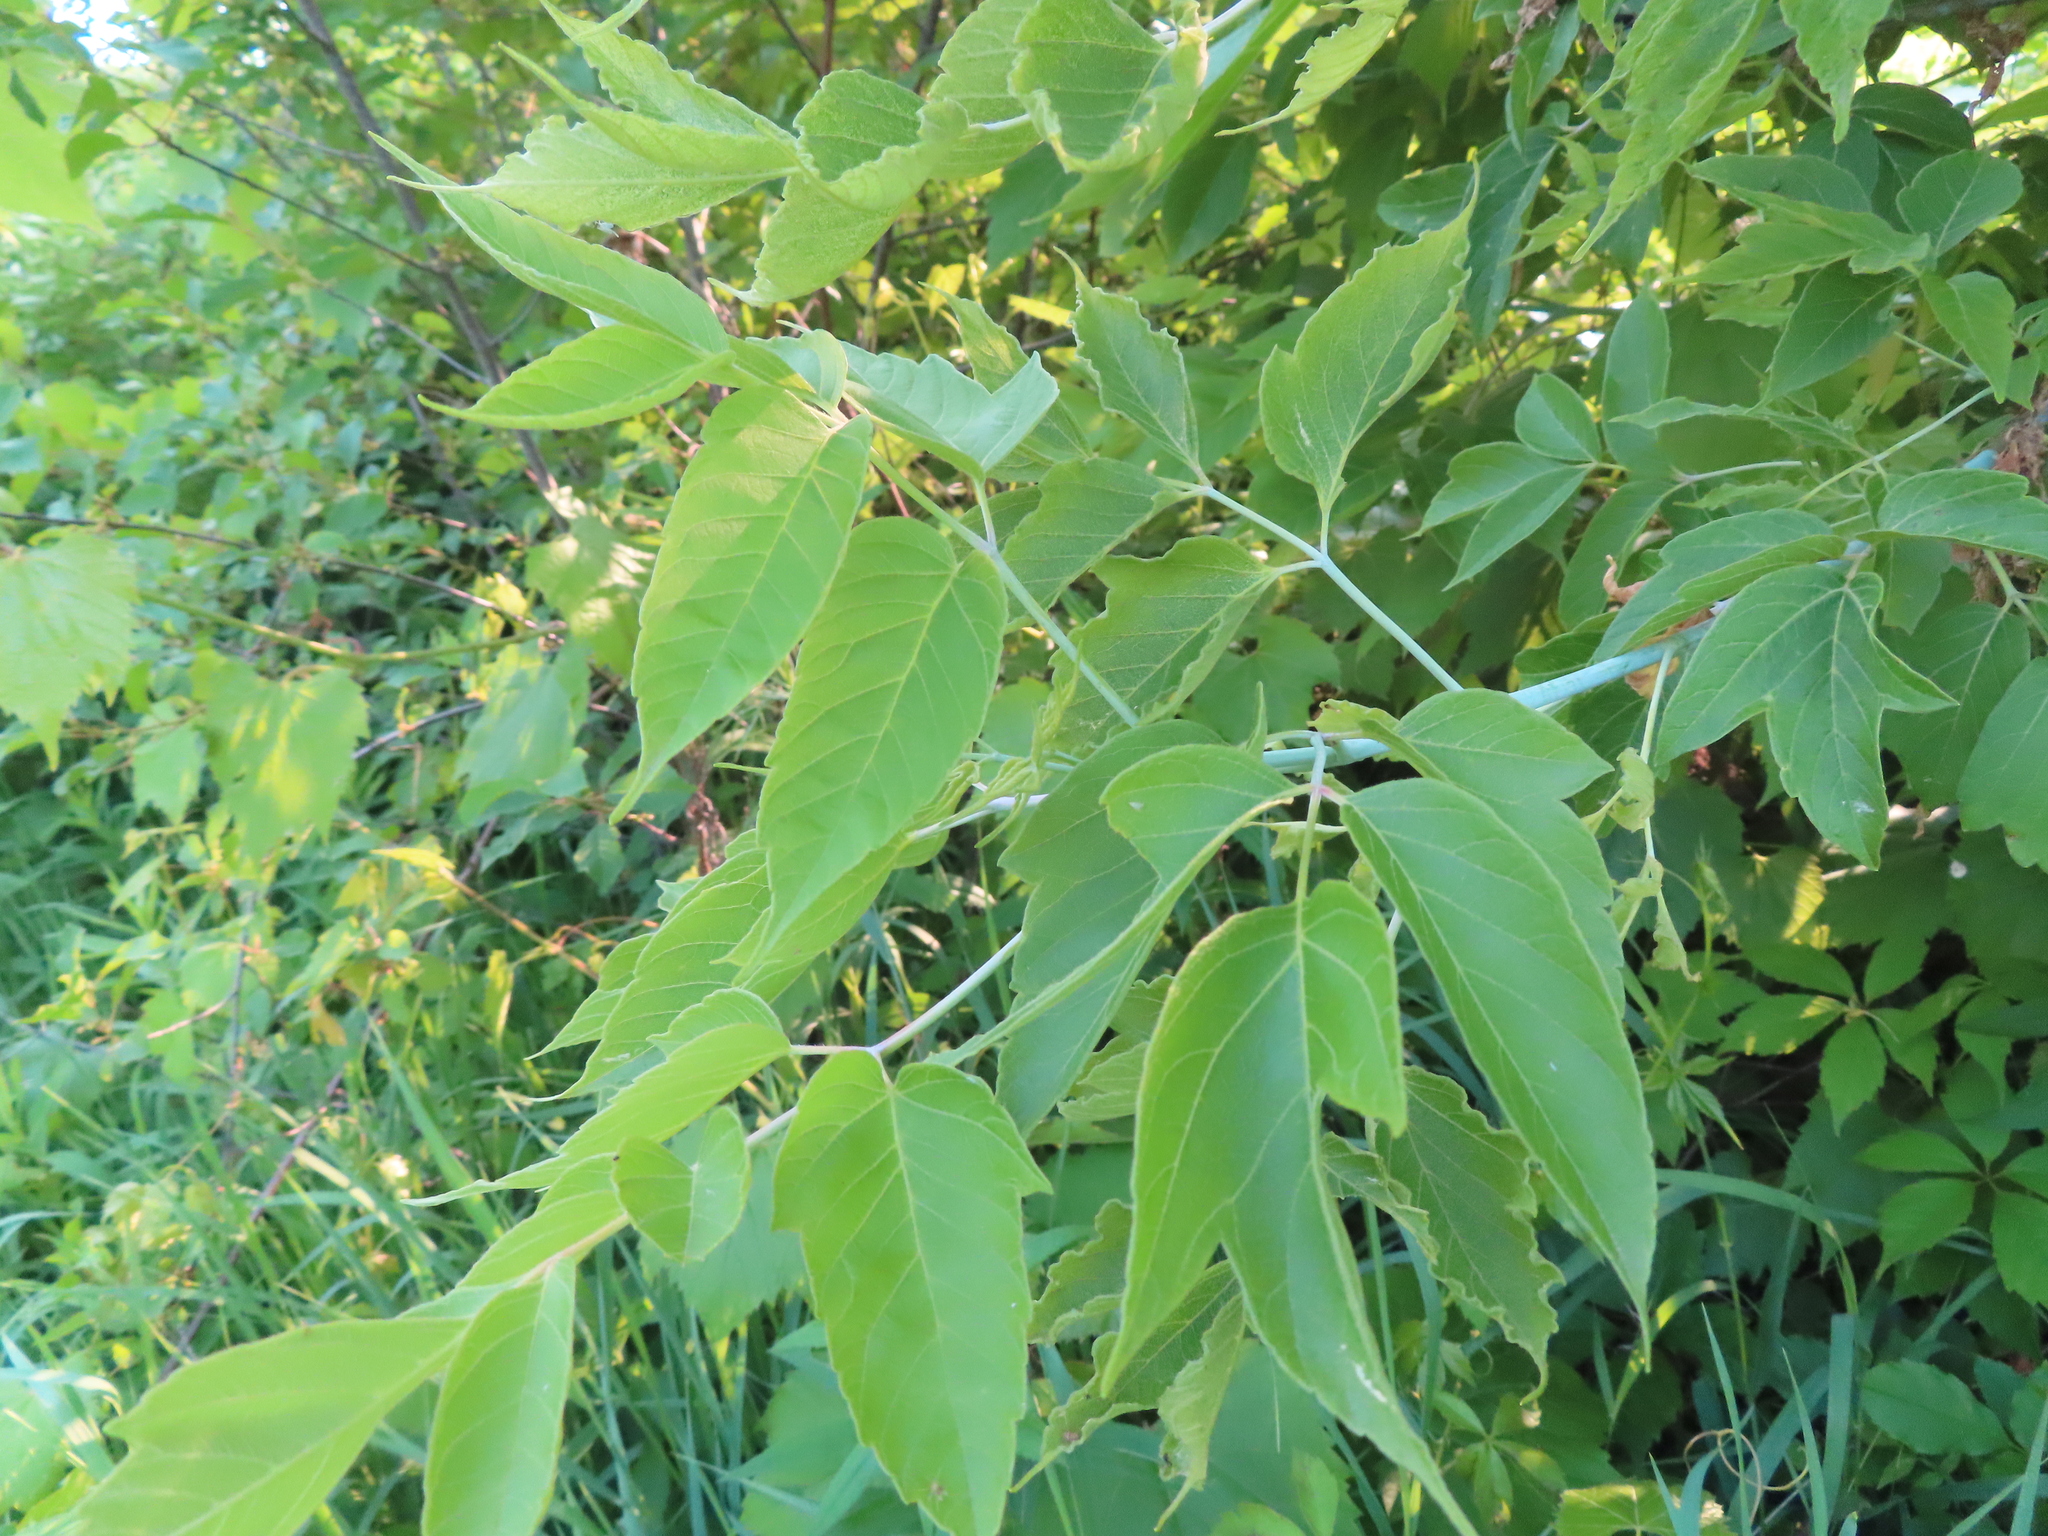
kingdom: Plantae
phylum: Tracheophyta
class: Magnoliopsida
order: Sapindales
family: Sapindaceae
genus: Acer
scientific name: Acer negundo
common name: Ashleaf maple
